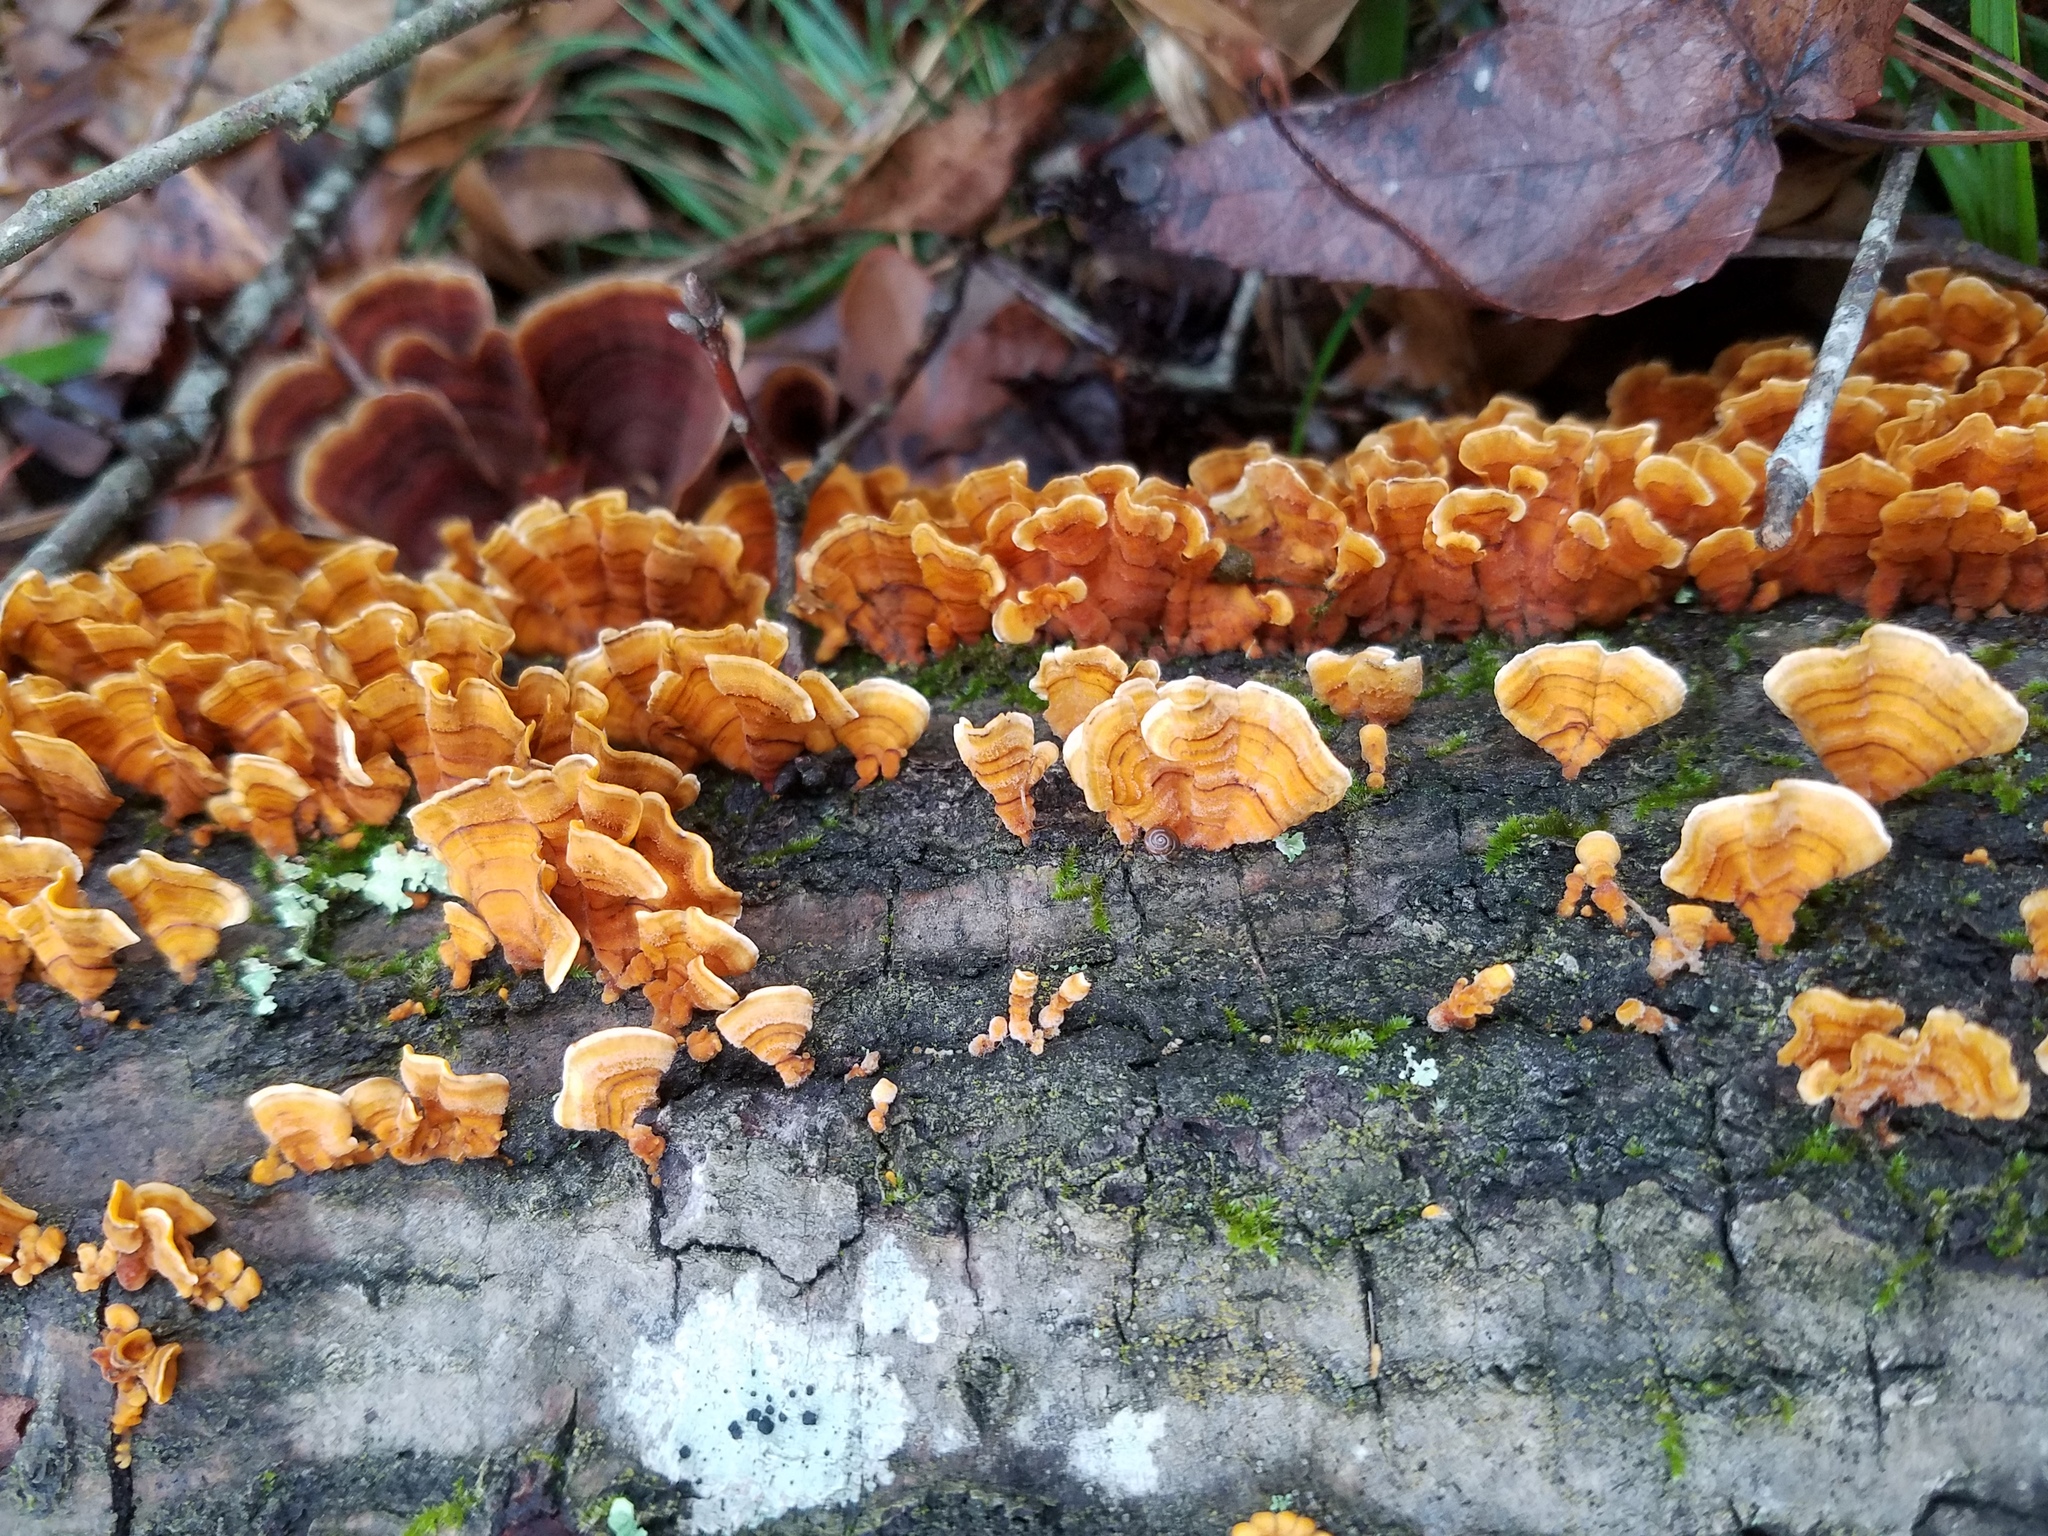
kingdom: Fungi
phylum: Basidiomycota
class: Agaricomycetes
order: Russulales
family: Stereaceae
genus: Stereum
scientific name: Stereum complicatum
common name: Crowded parchment
